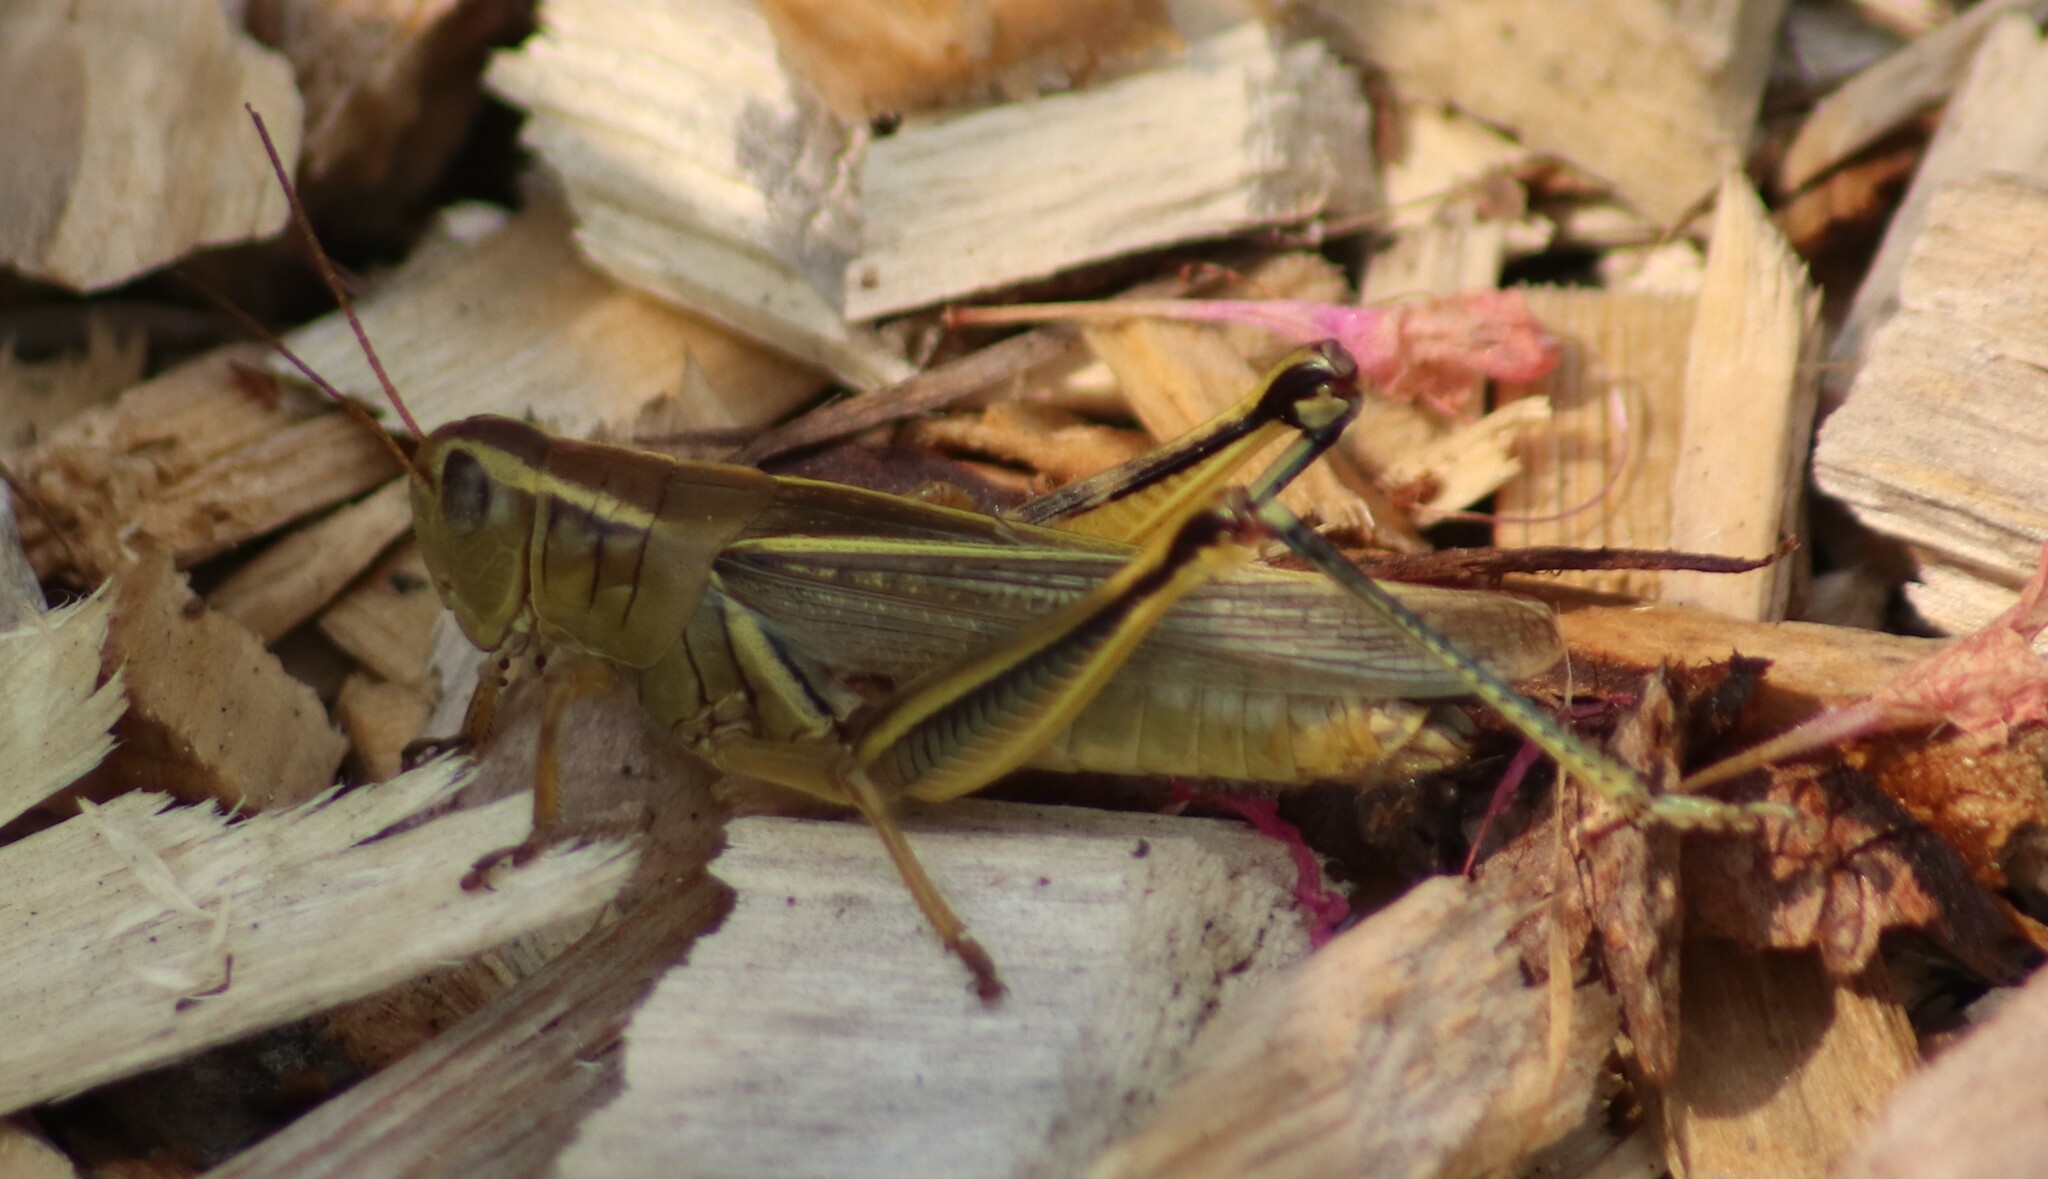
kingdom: Animalia
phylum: Arthropoda
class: Insecta
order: Orthoptera
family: Acrididae
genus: Melanoplus
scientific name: Melanoplus bivittatus
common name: Two-striped grasshopper
